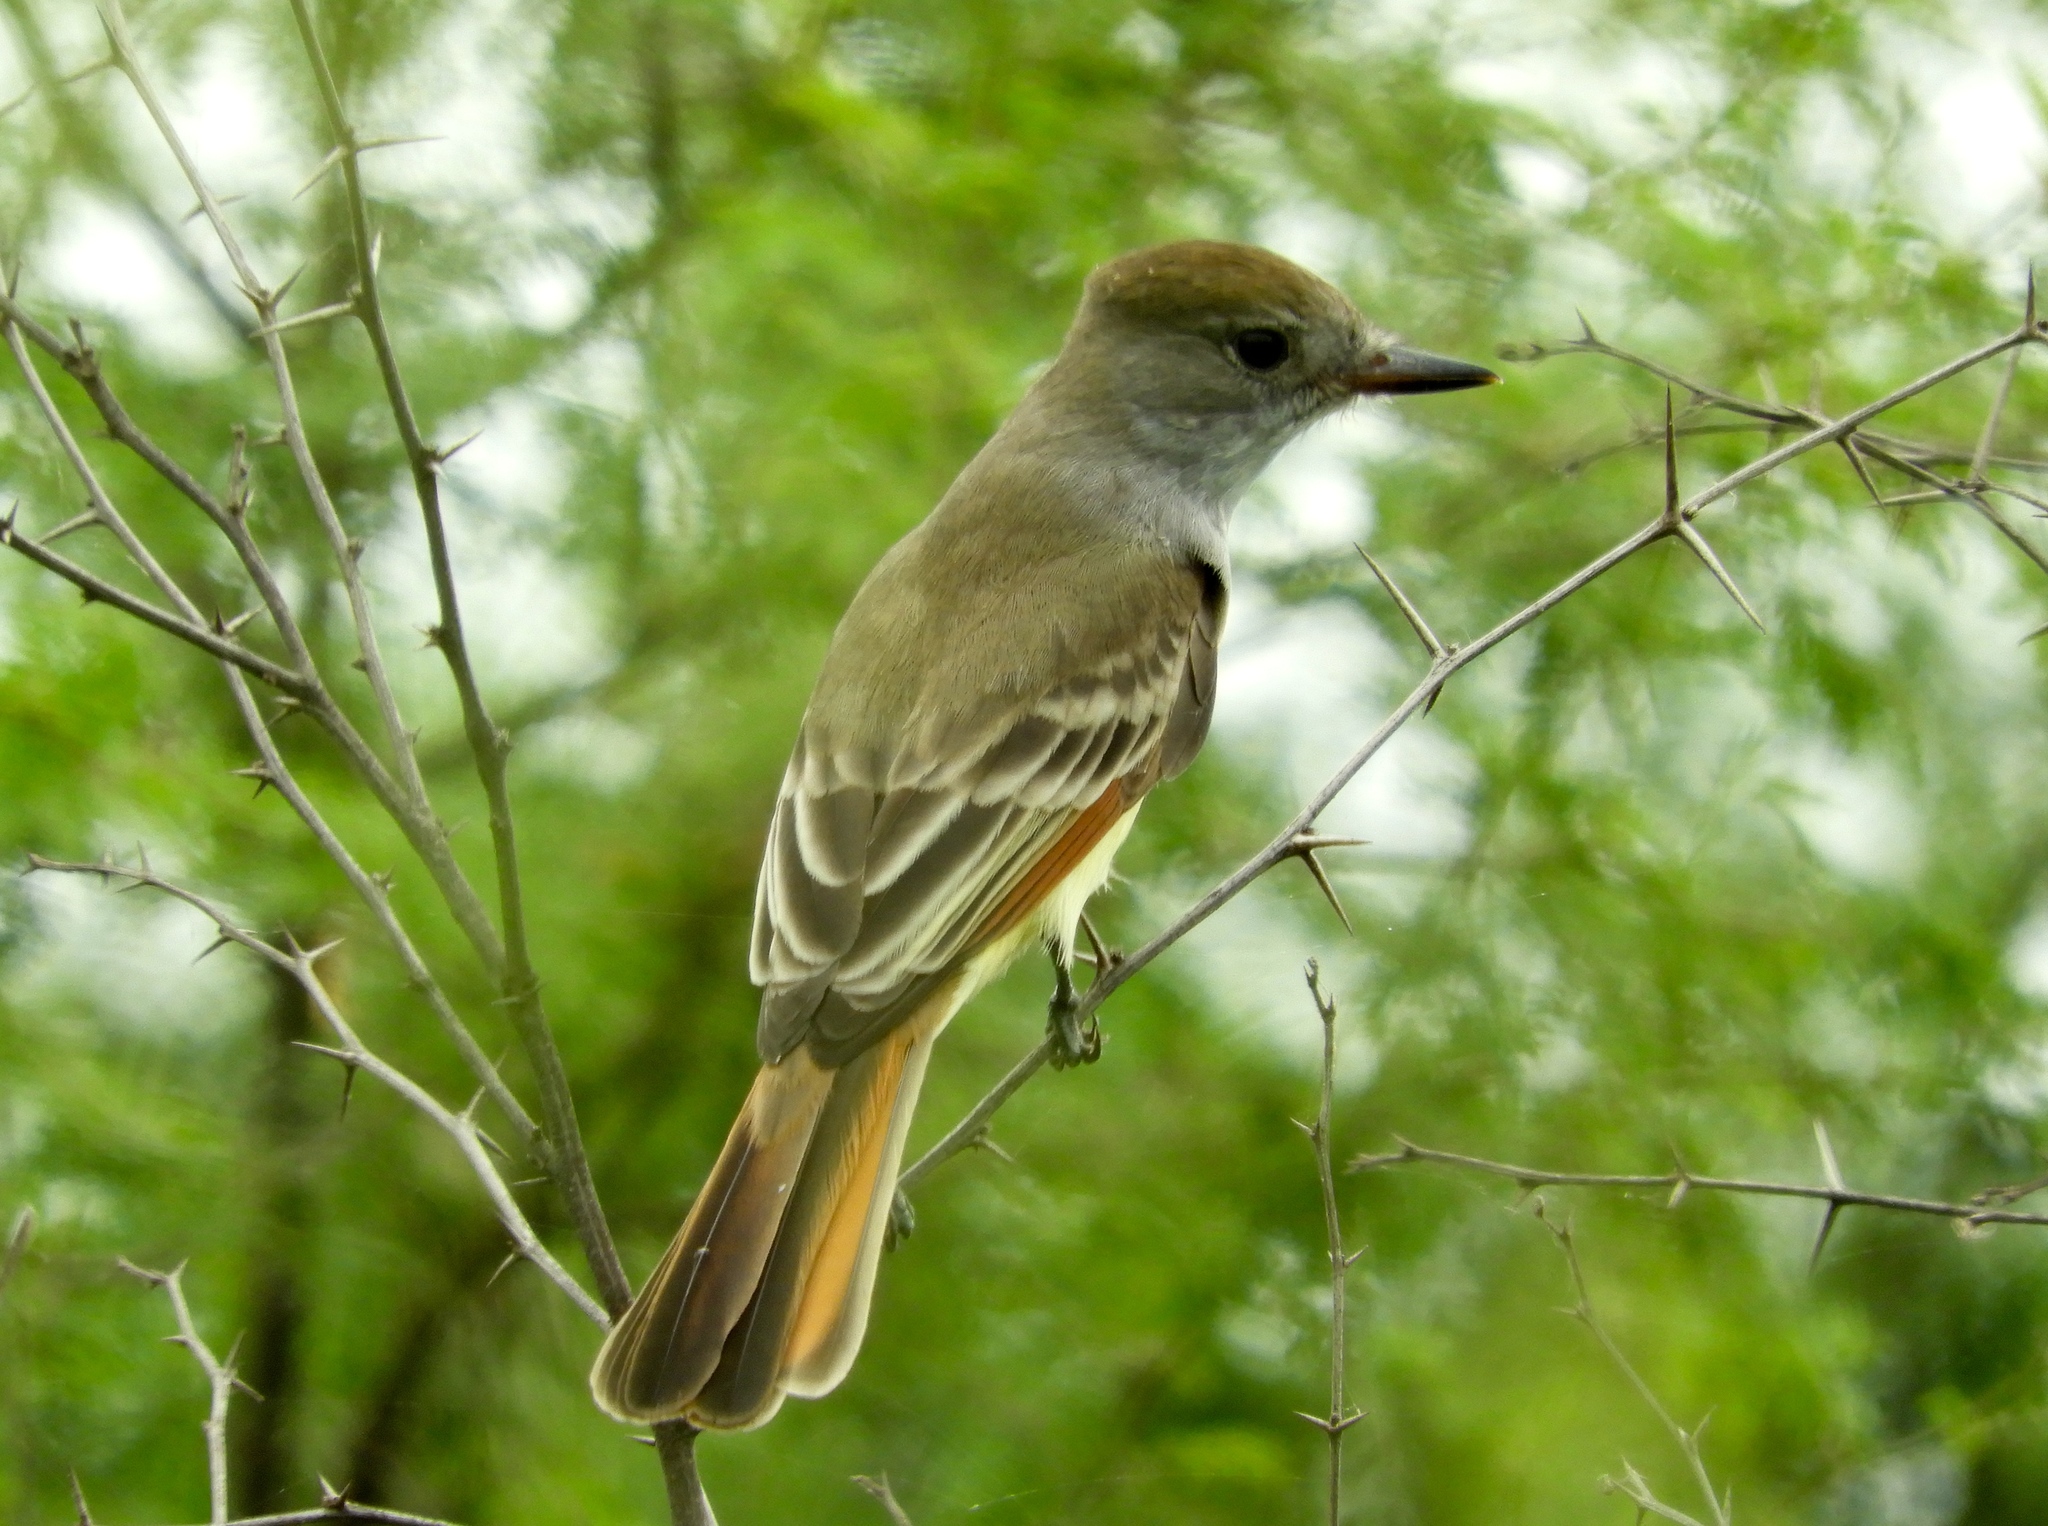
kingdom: Animalia
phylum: Chordata
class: Aves
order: Passeriformes
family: Tyrannidae
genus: Myiarchus
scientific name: Myiarchus tyrannulus
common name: Brown-crested flycatcher
